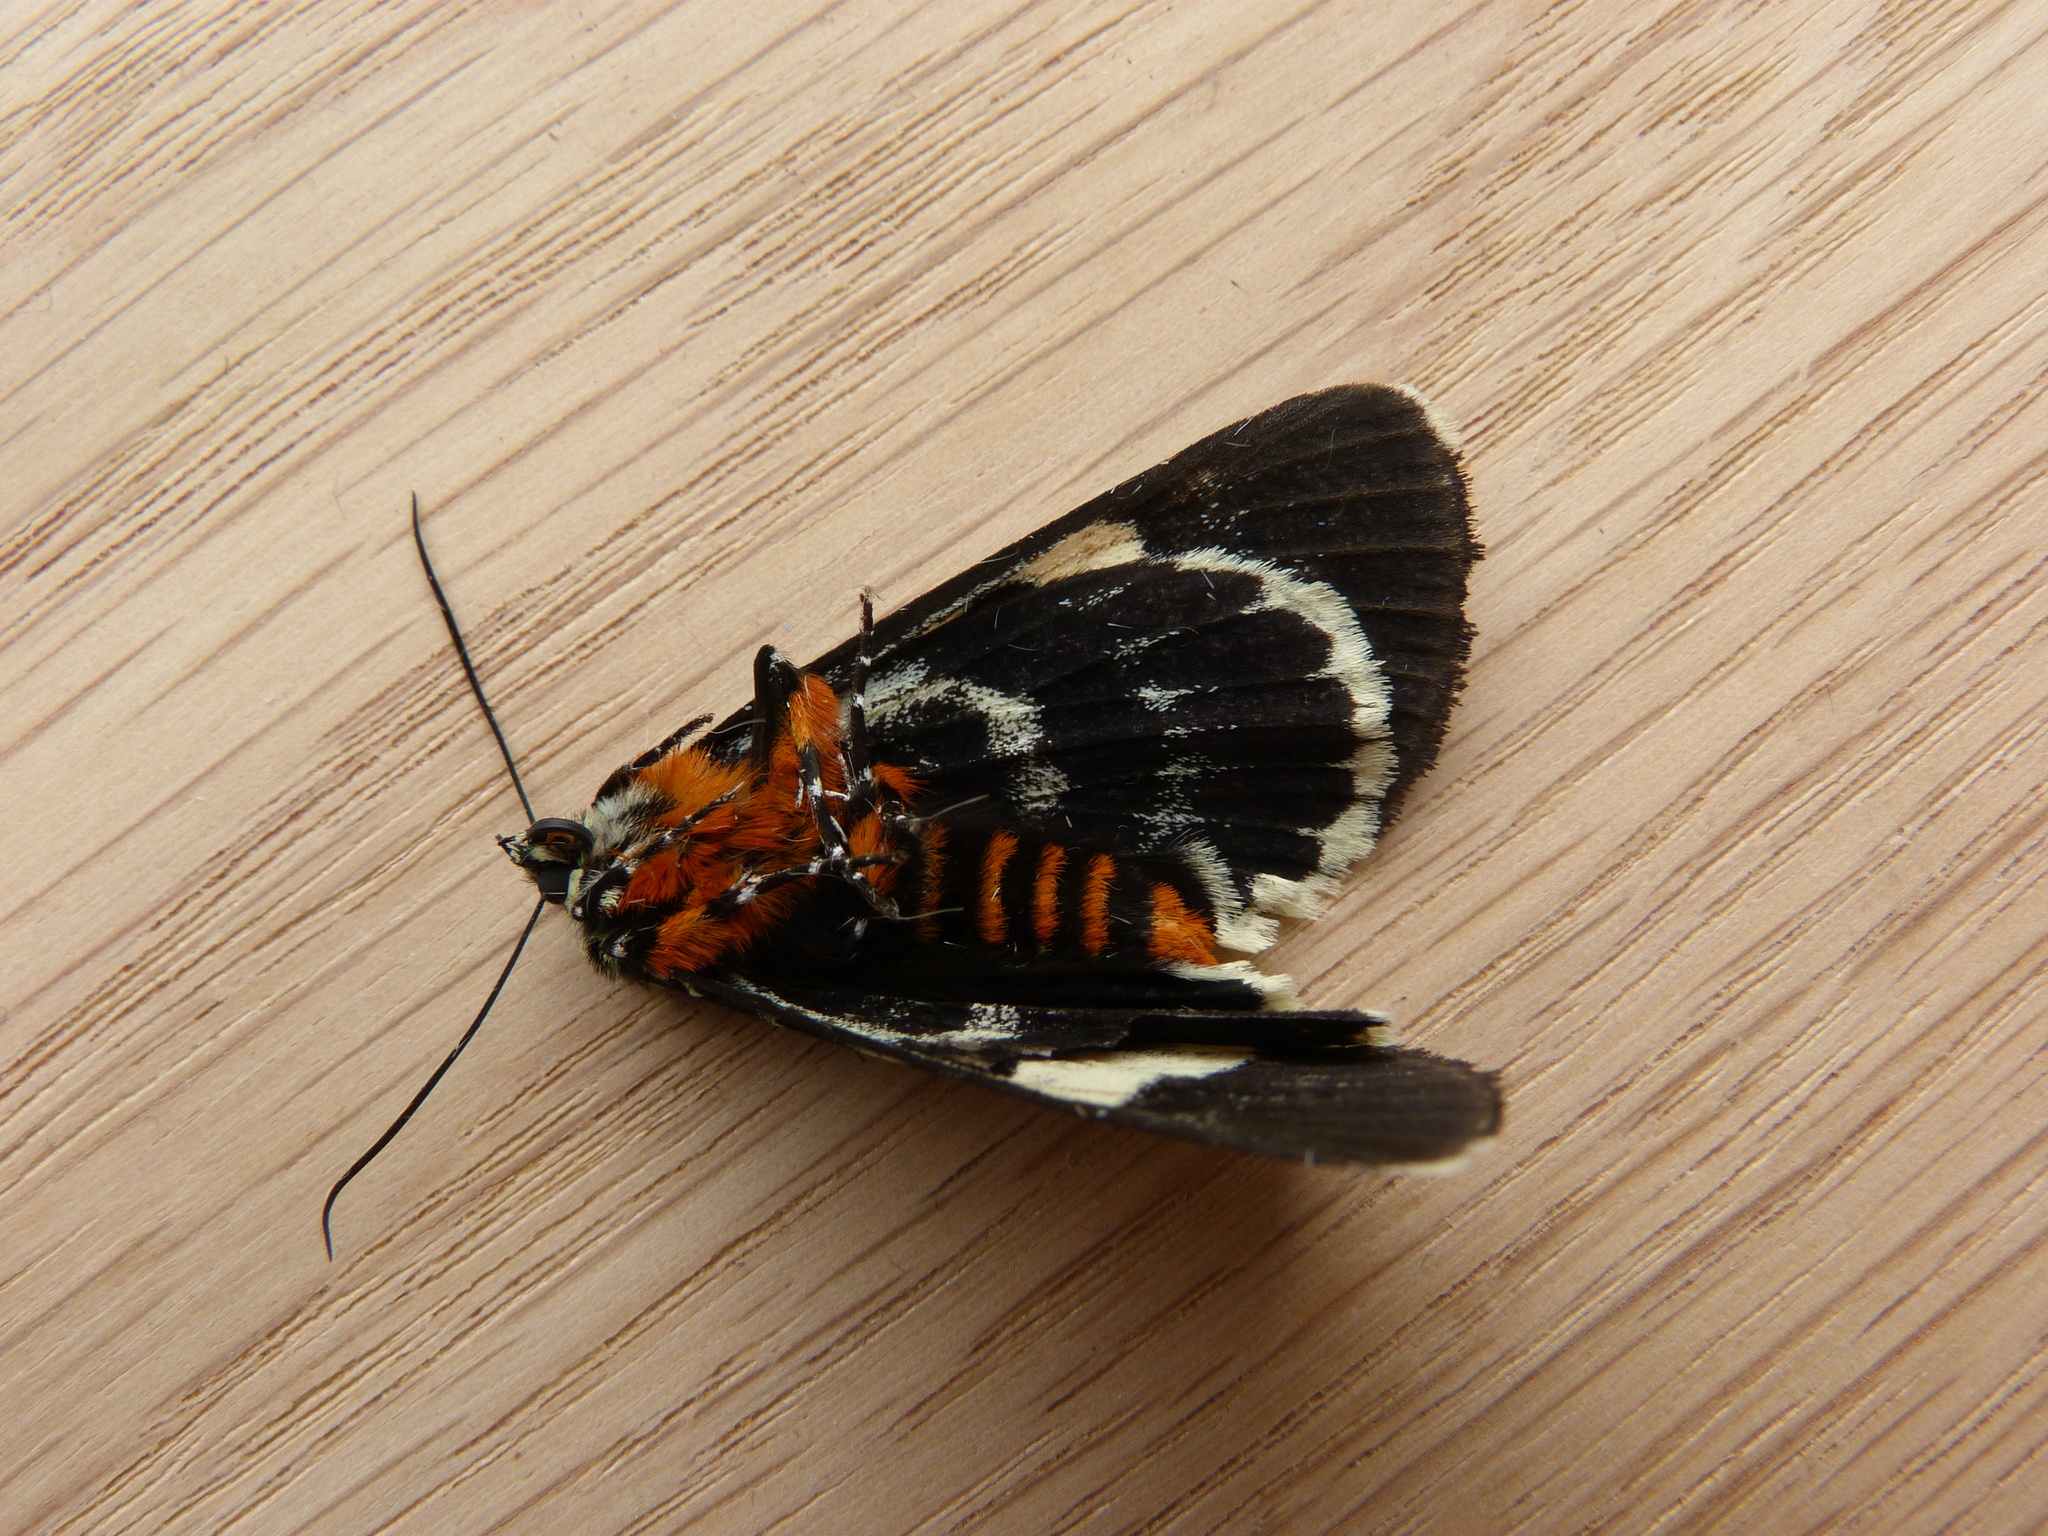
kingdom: Animalia
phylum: Arthropoda
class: Insecta
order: Lepidoptera
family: Noctuidae
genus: Phalaenoides
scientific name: Phalaenoides glycinae
